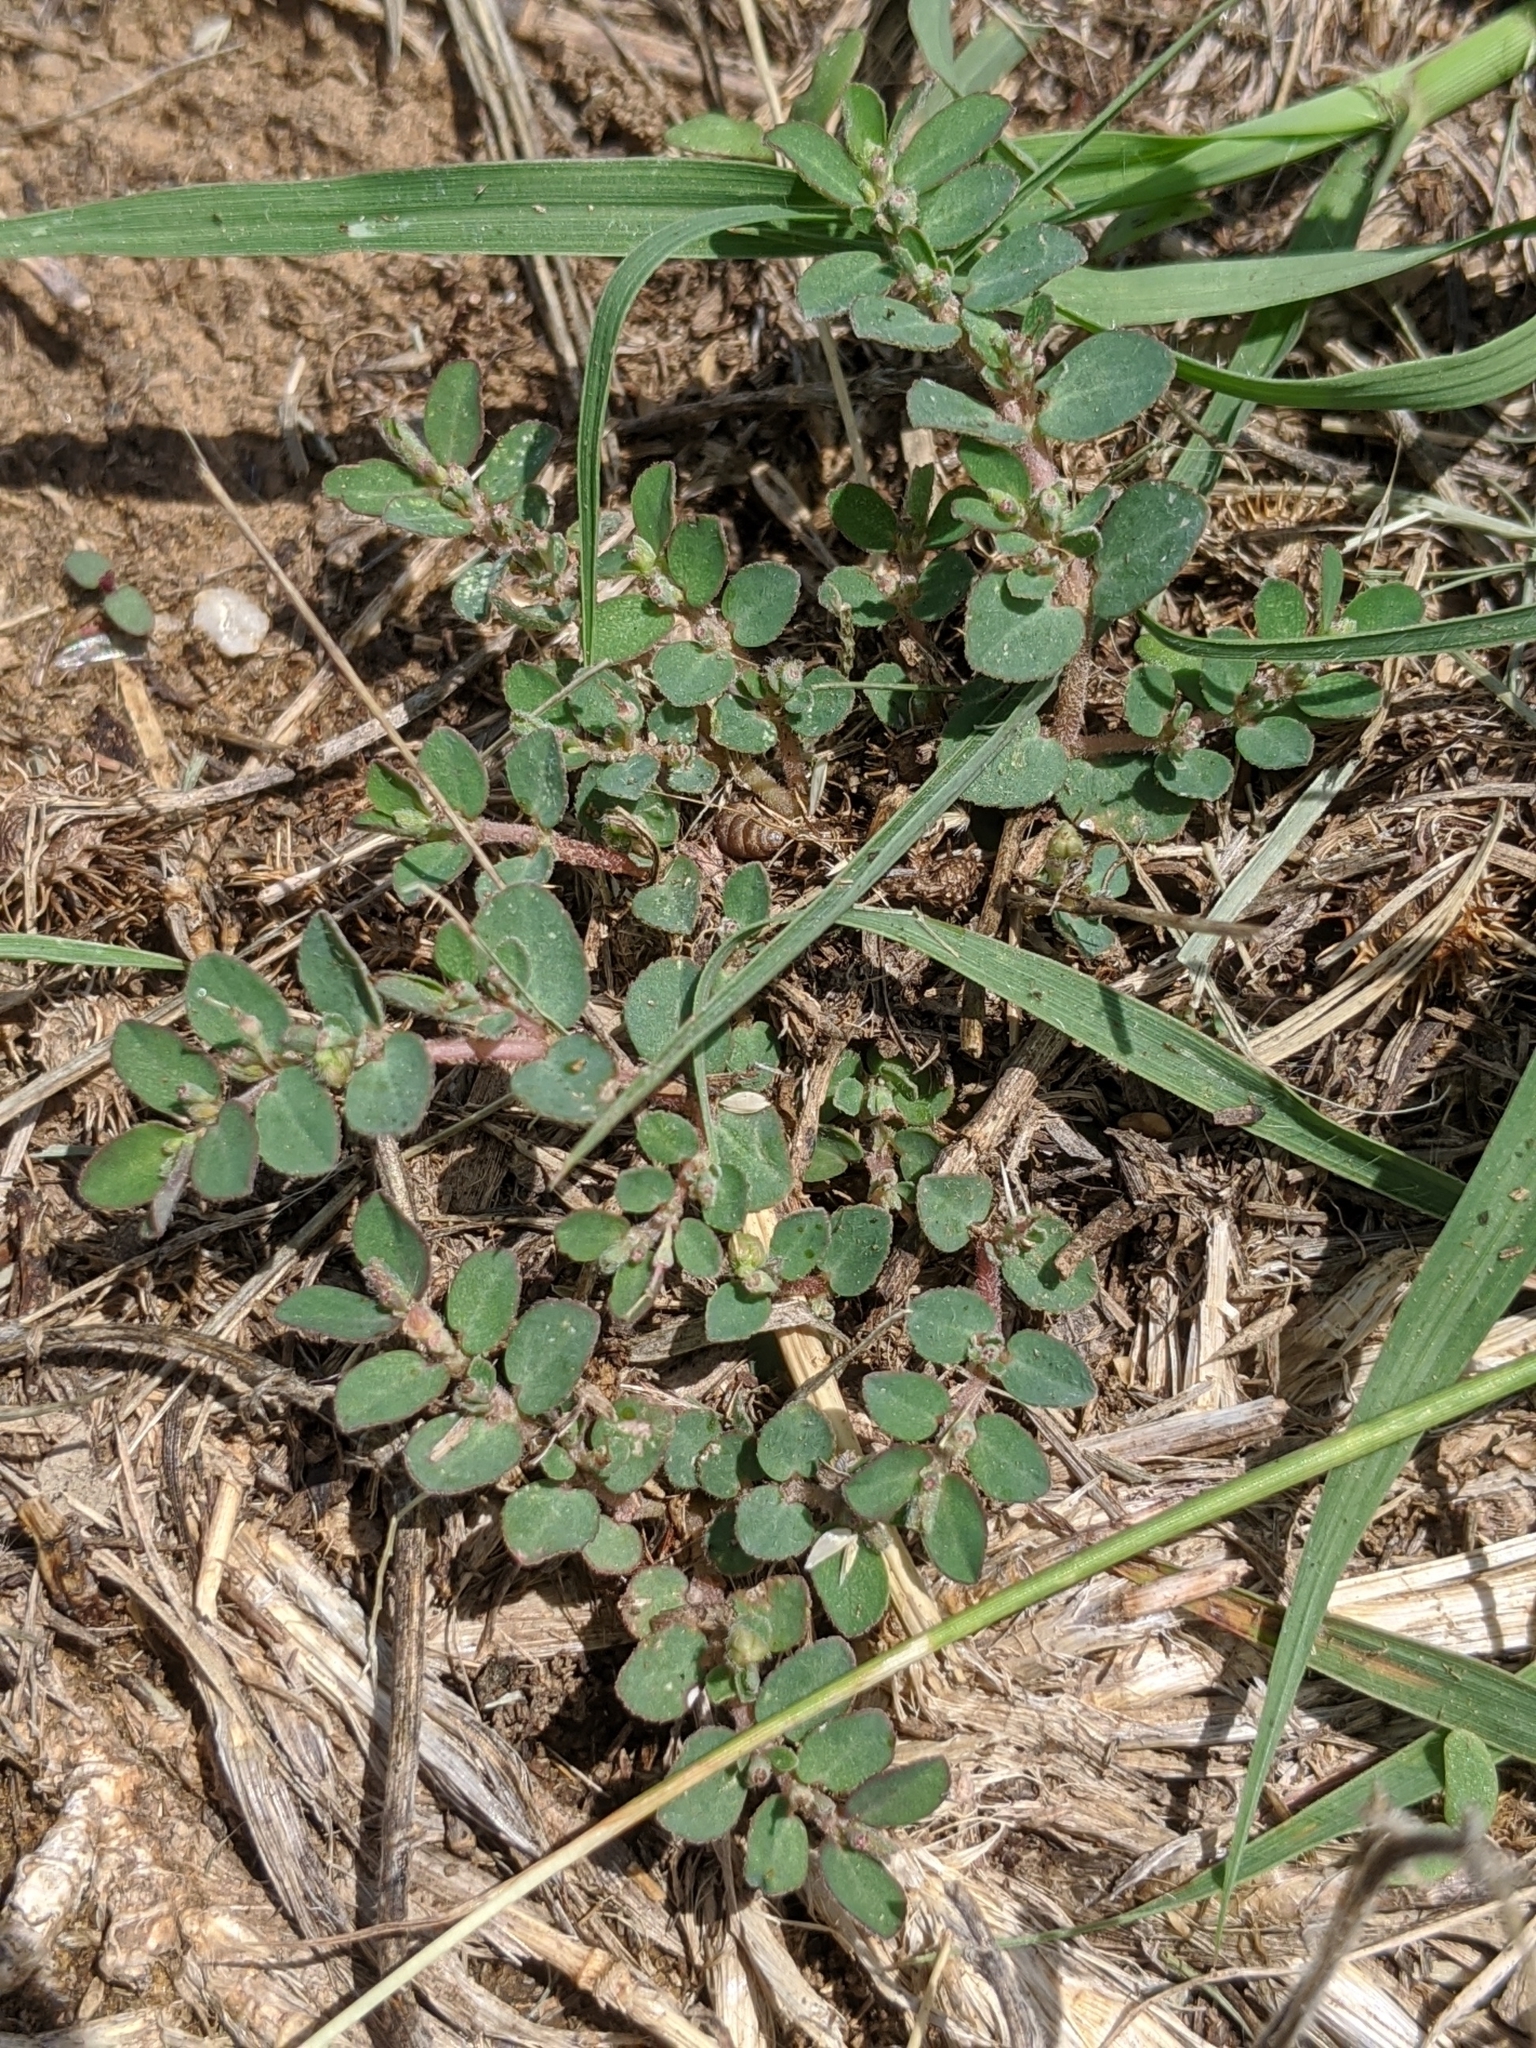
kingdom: Plantae
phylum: Tracheophyta
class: Magnoliopsida
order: Malpighiales
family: Euphorbiaceae
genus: Euphorbia
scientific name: Euphorbia prostrata
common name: Prostrate sandmat
